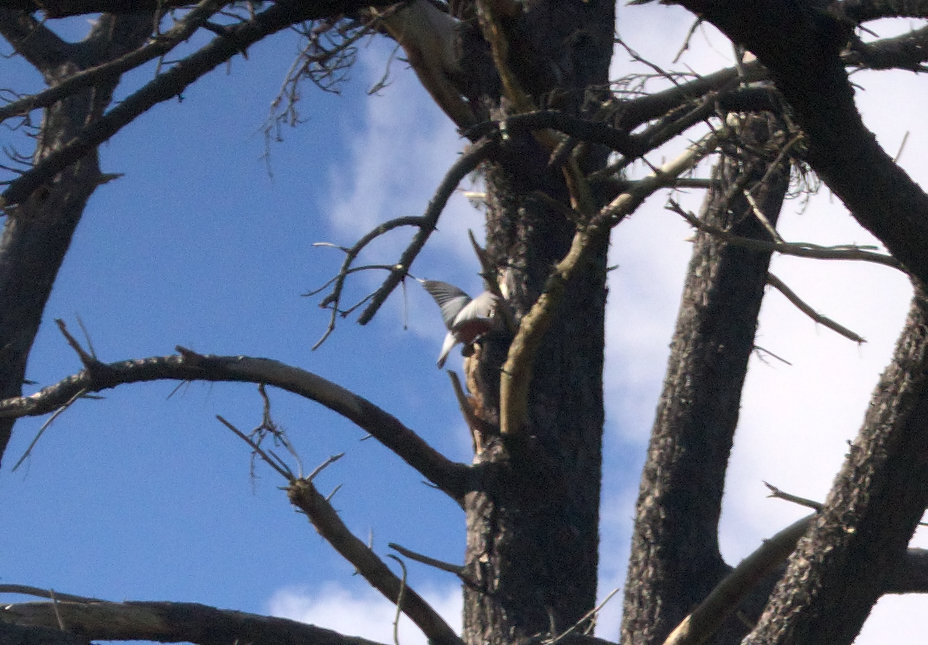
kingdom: Animalia
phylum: Chordata
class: Aves
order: Psittaciformes
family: Psittacidae
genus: Eolophus
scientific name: Eolophus roseicapilla
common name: Galah
